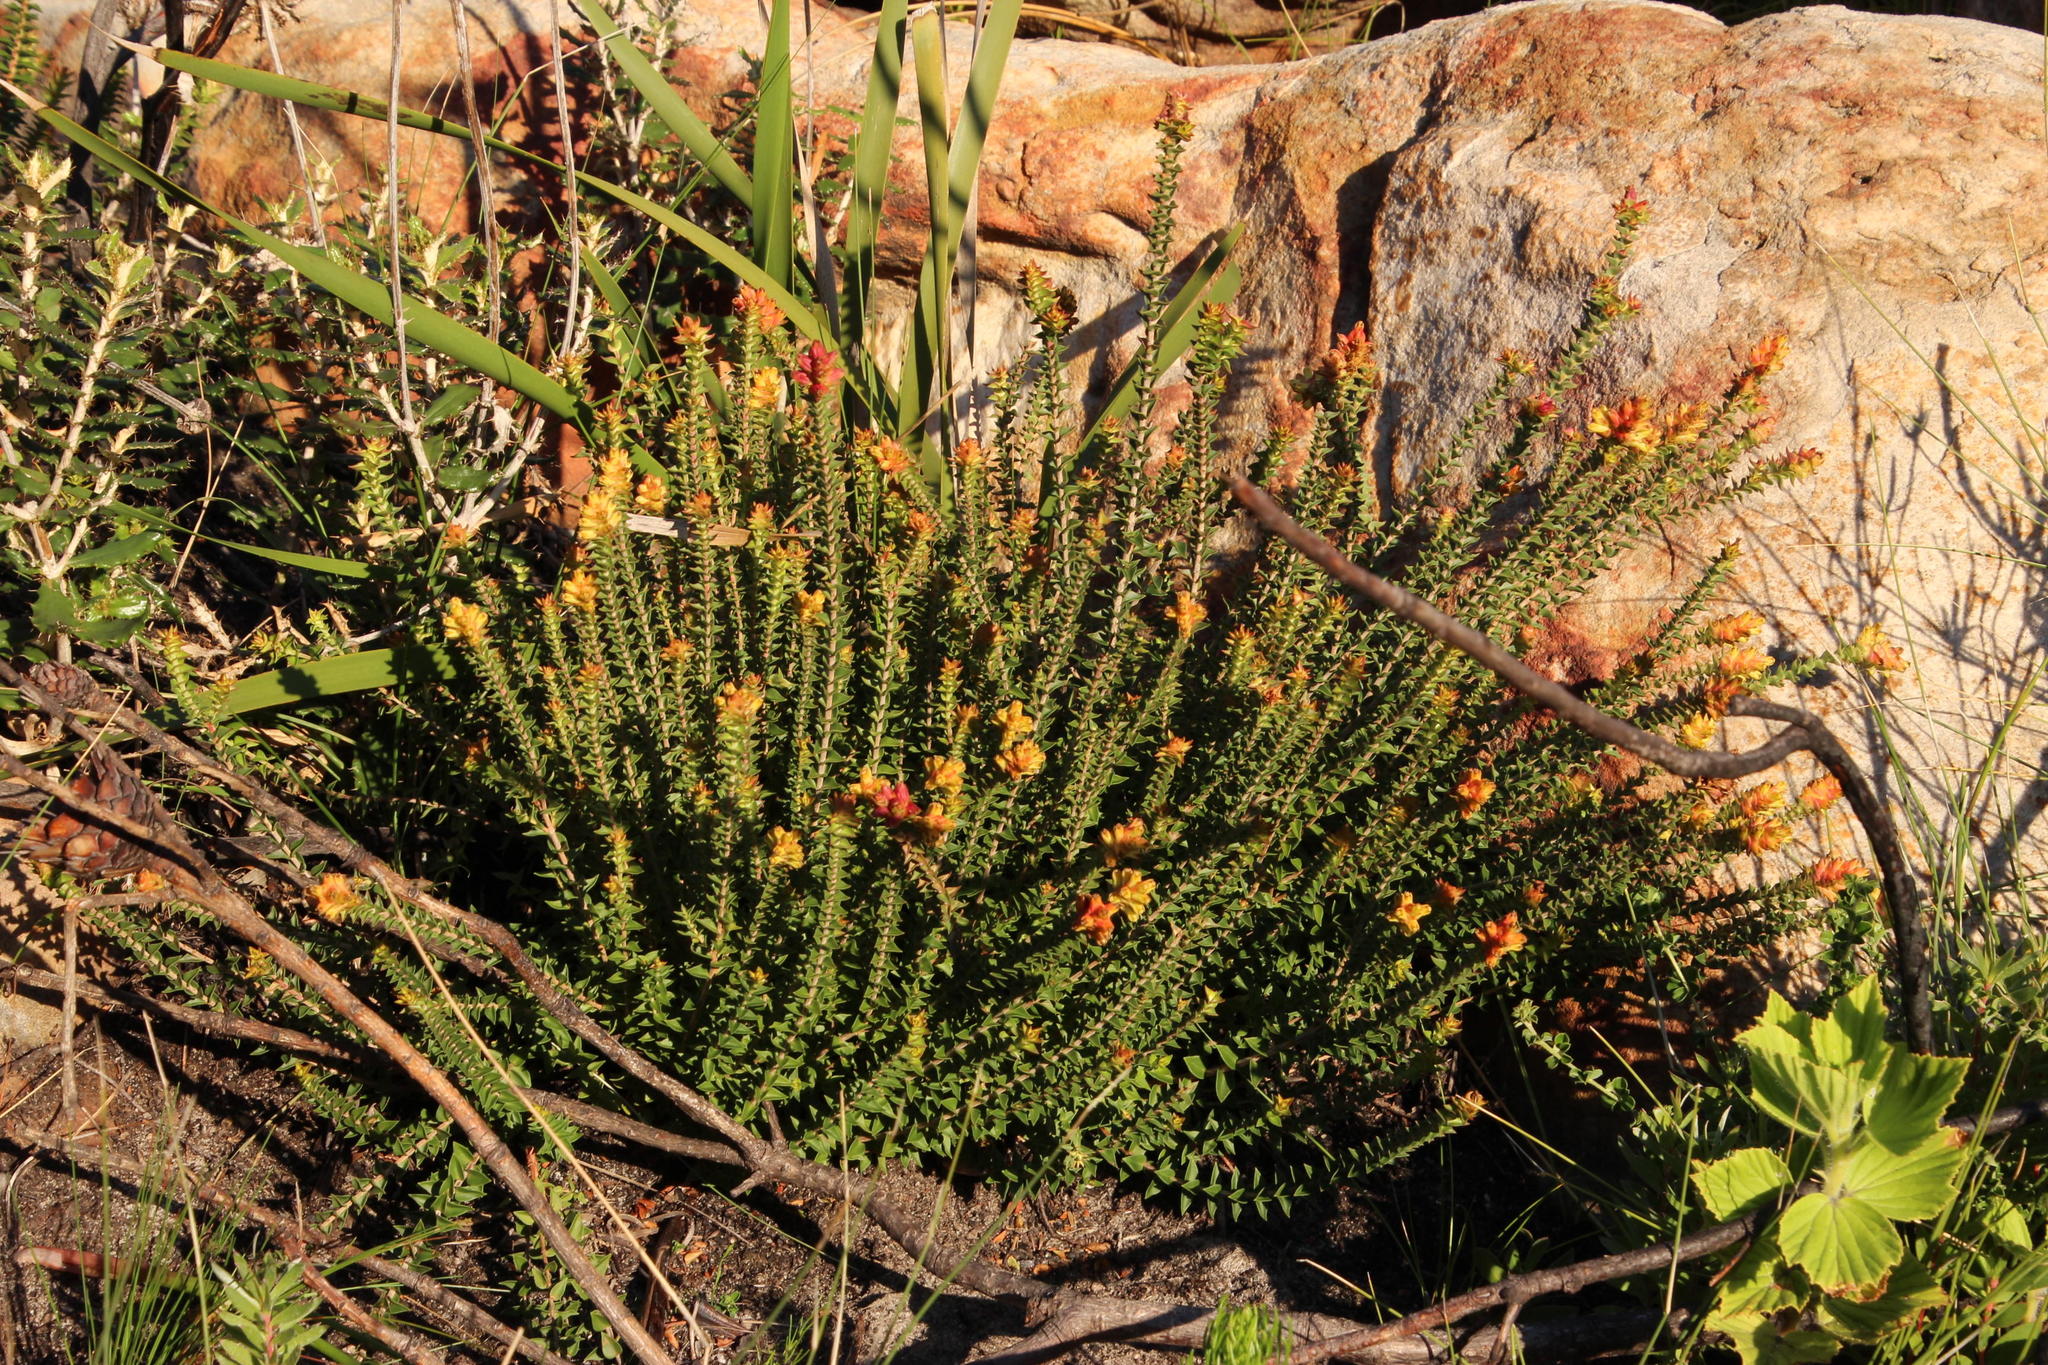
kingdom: Plantae
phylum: Tracheophyta
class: Magnoliopsida
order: Myrtales
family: Penaeaceae
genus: Penaea
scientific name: Penaea mucronata
